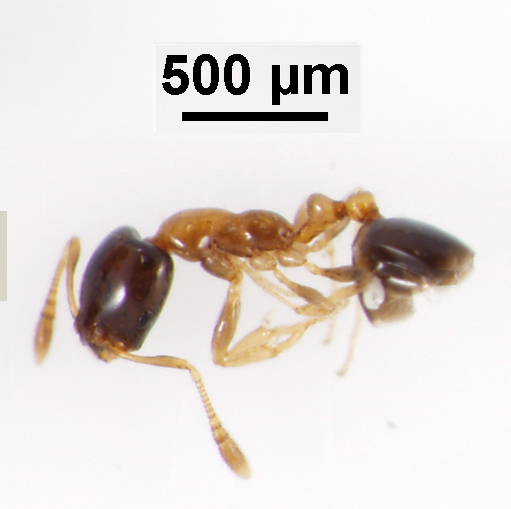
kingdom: Animalia
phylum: Arthropoda
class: Insecta
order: Hymenoptera
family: Formicidae
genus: Monomorium
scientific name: Monomorium floricola
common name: Bicolored trailing ant
